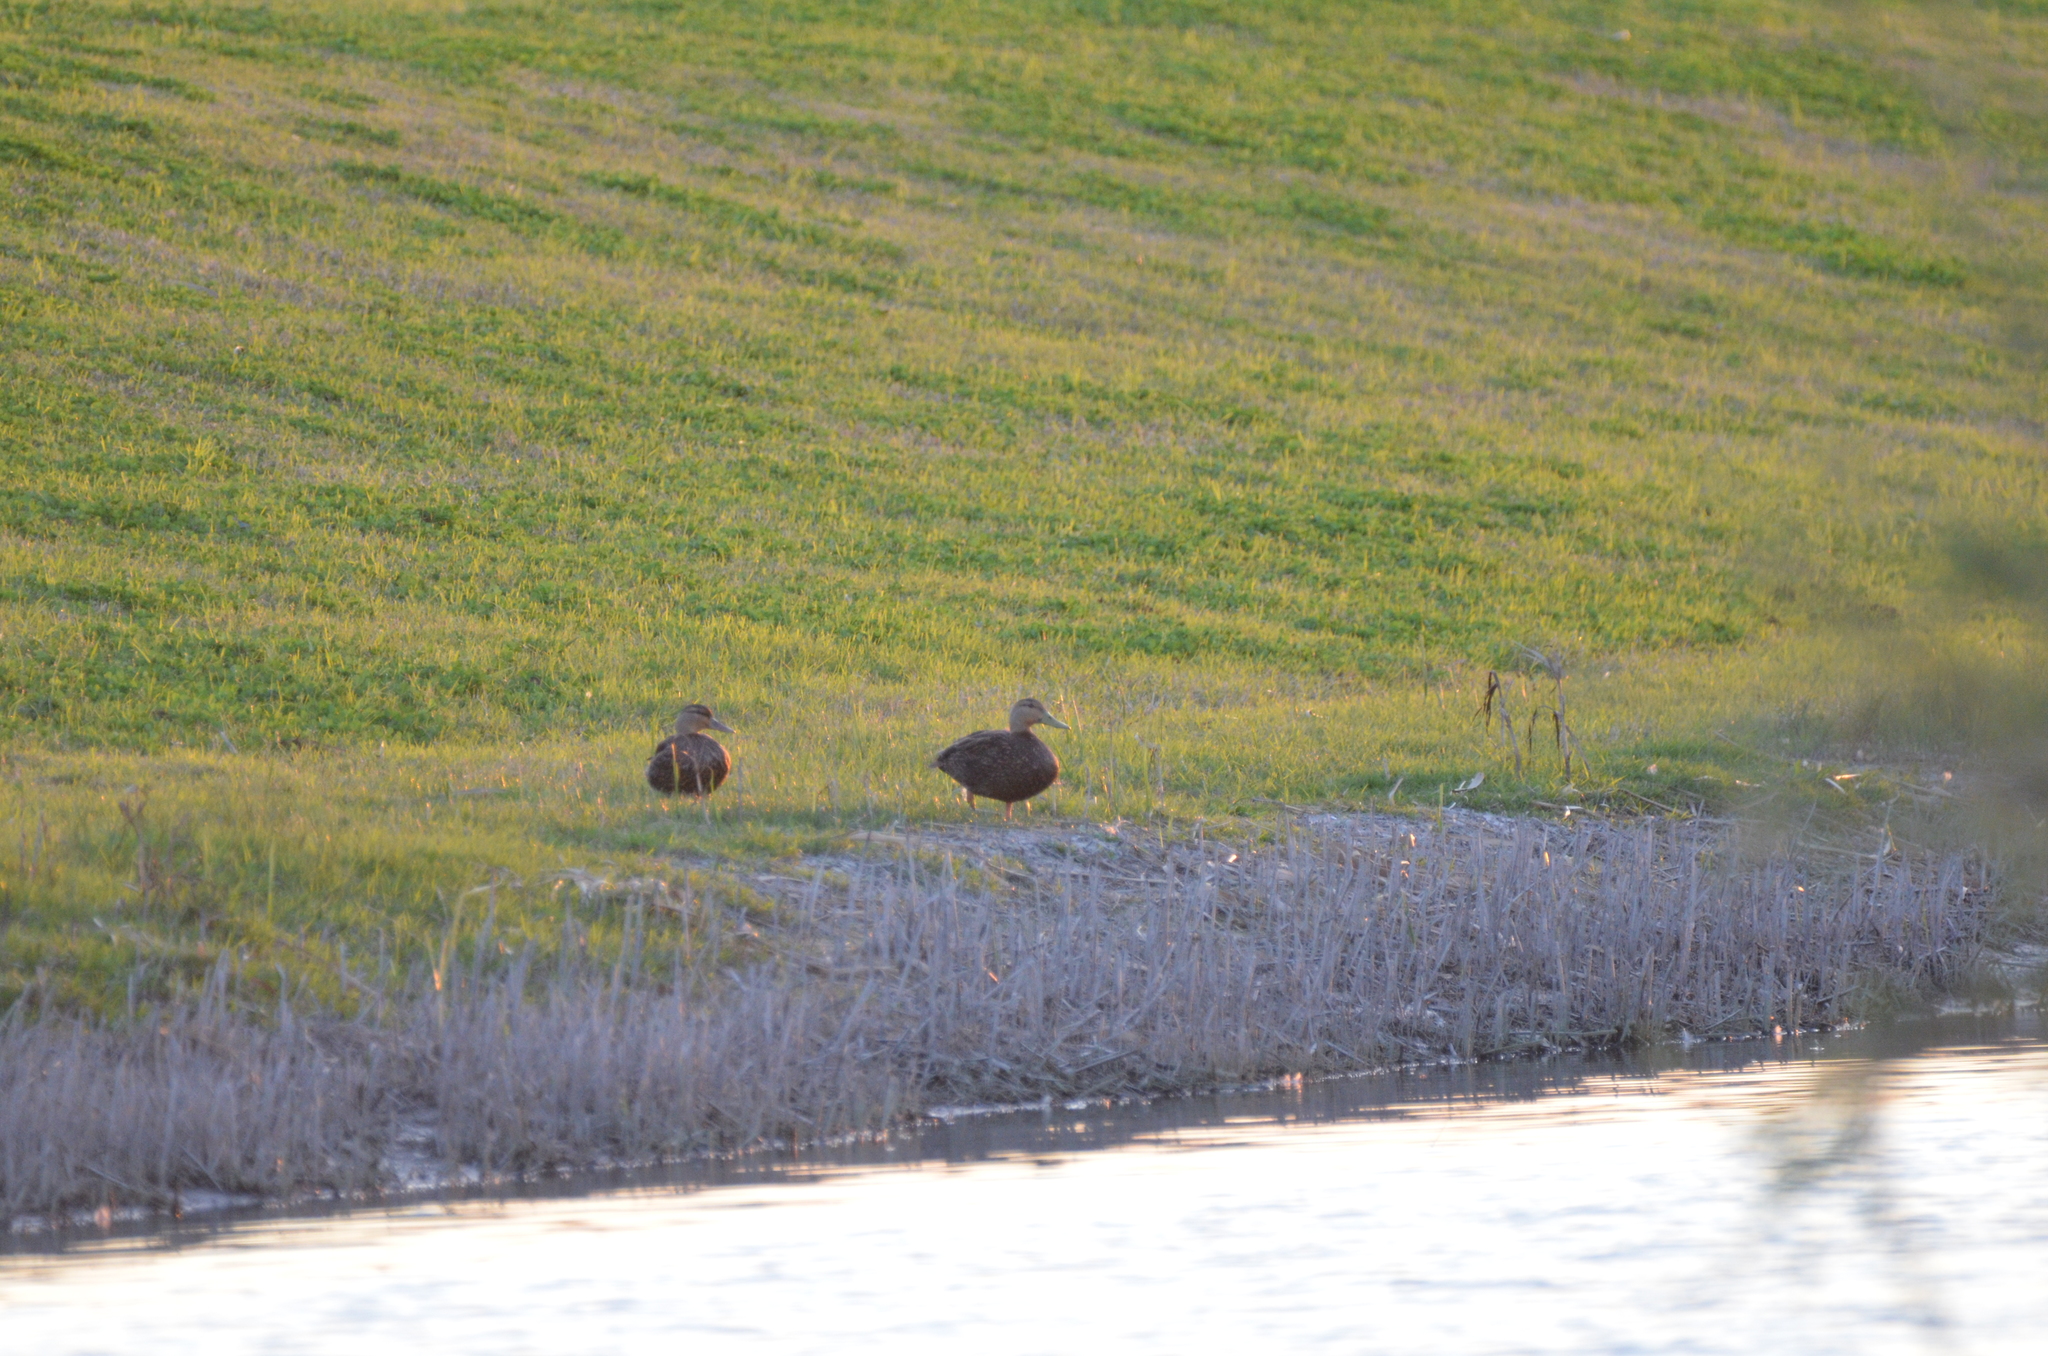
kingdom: Animalia
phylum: Chordata
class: Aves
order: Anseriformes
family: Anatidae
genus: Anas
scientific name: Anas fulvigula
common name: Mottled duck
